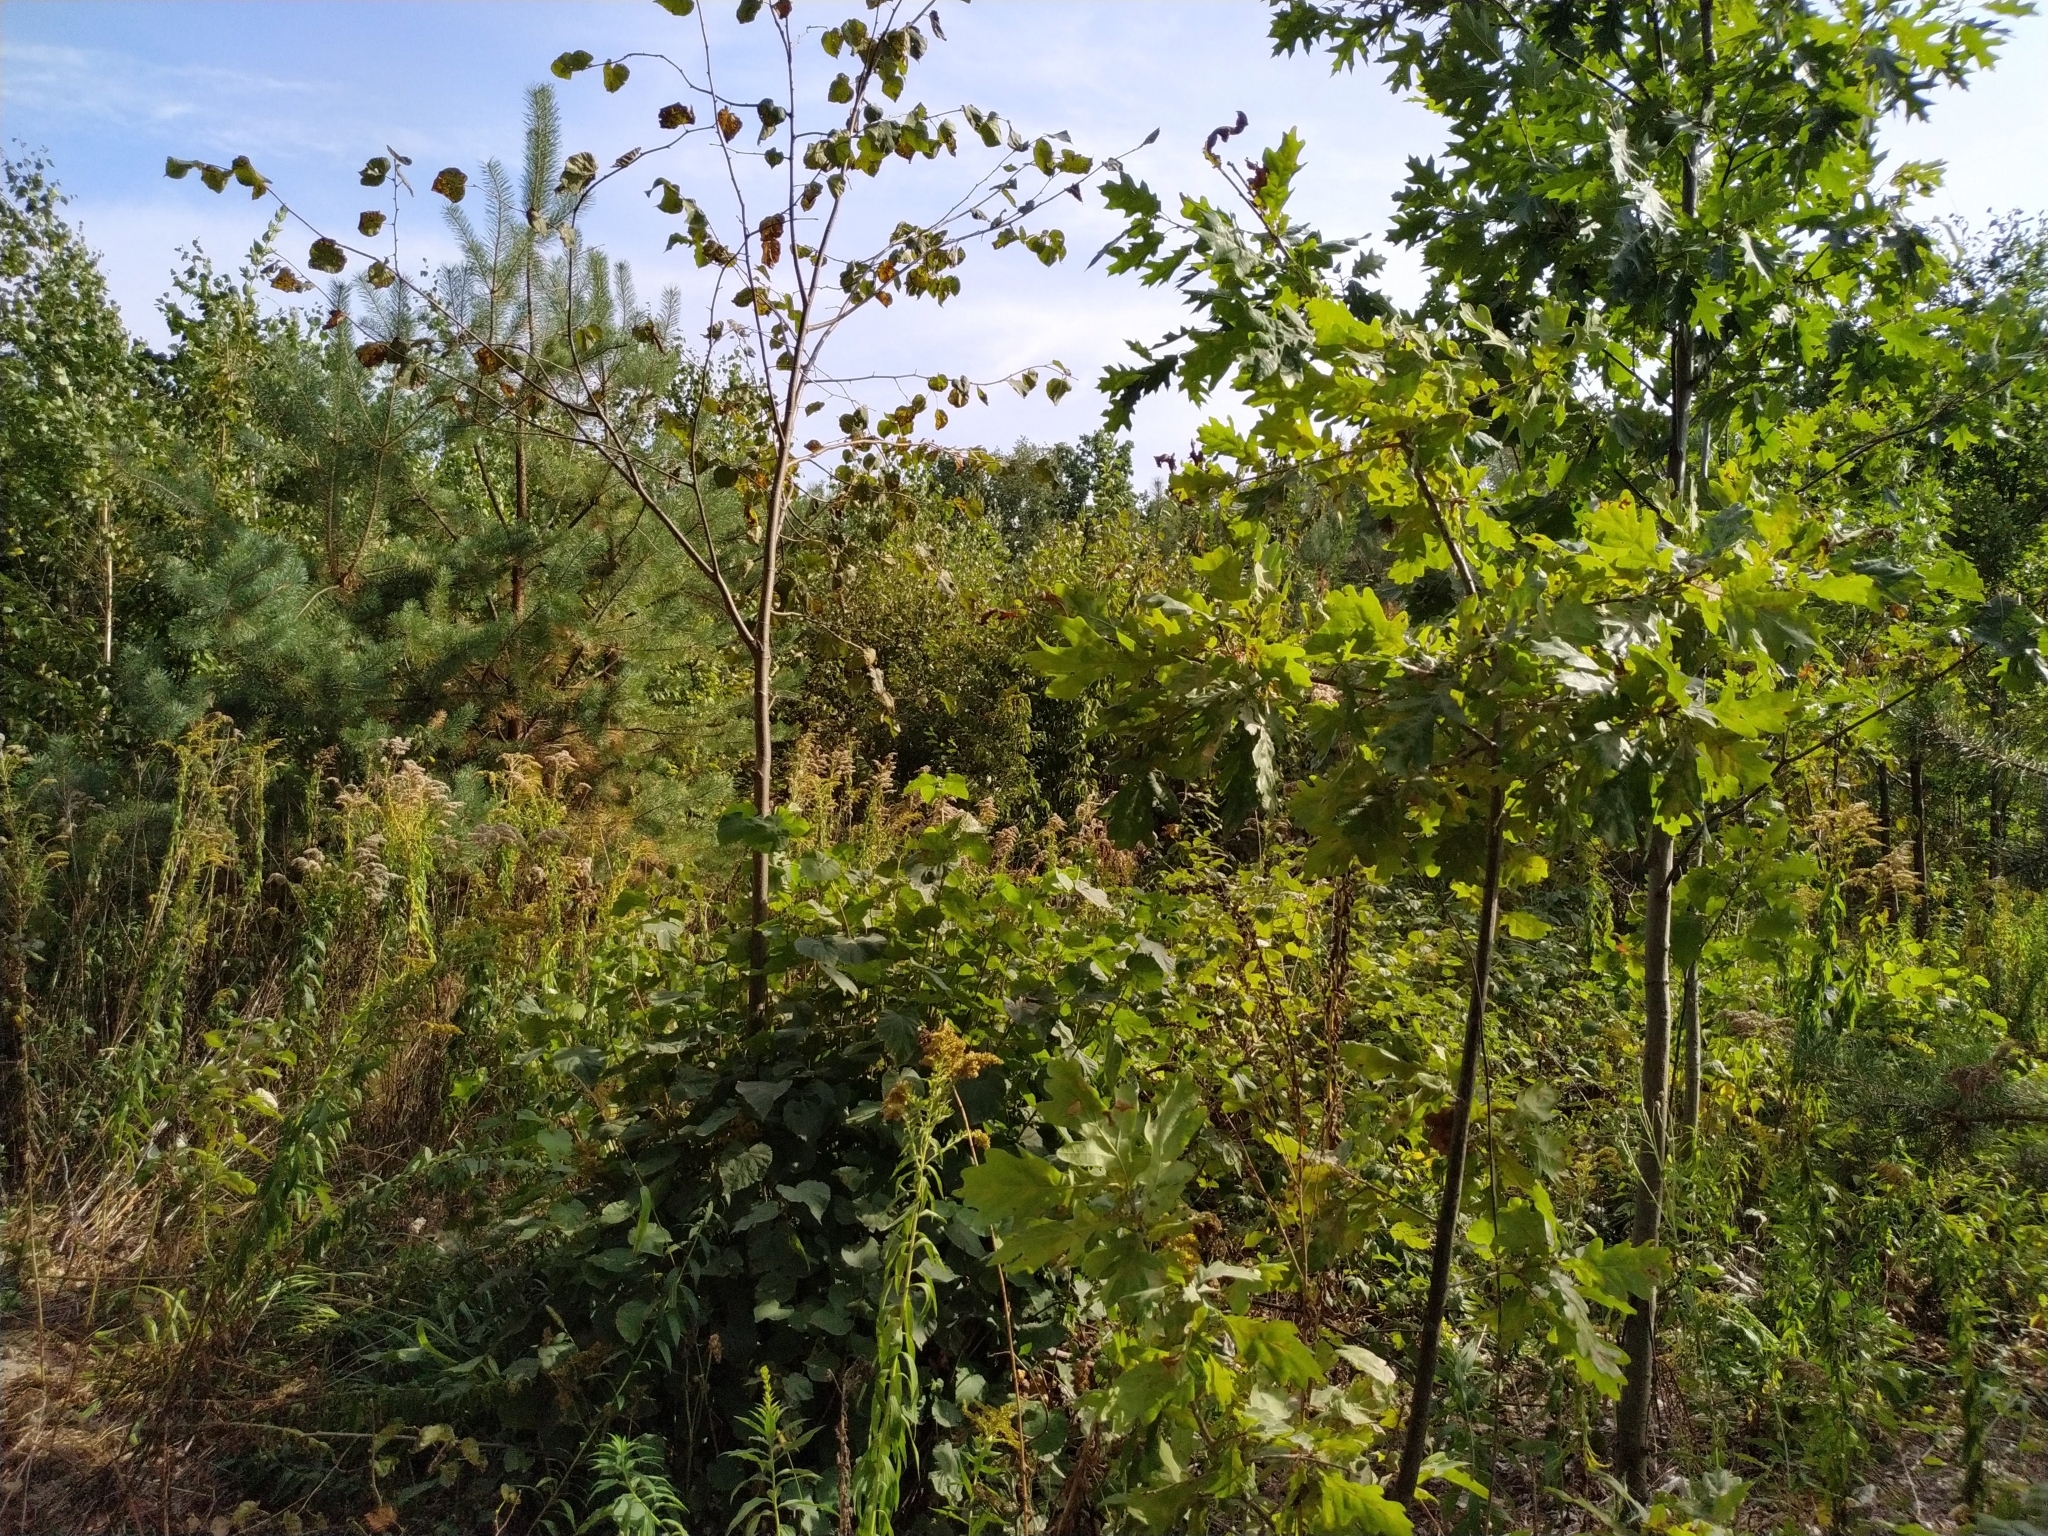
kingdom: Plantae
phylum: Tracheophyta
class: Magnoliopsida
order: Fagales
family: Fagaceae
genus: Quercus
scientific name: Quercus rubra
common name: Red oak
